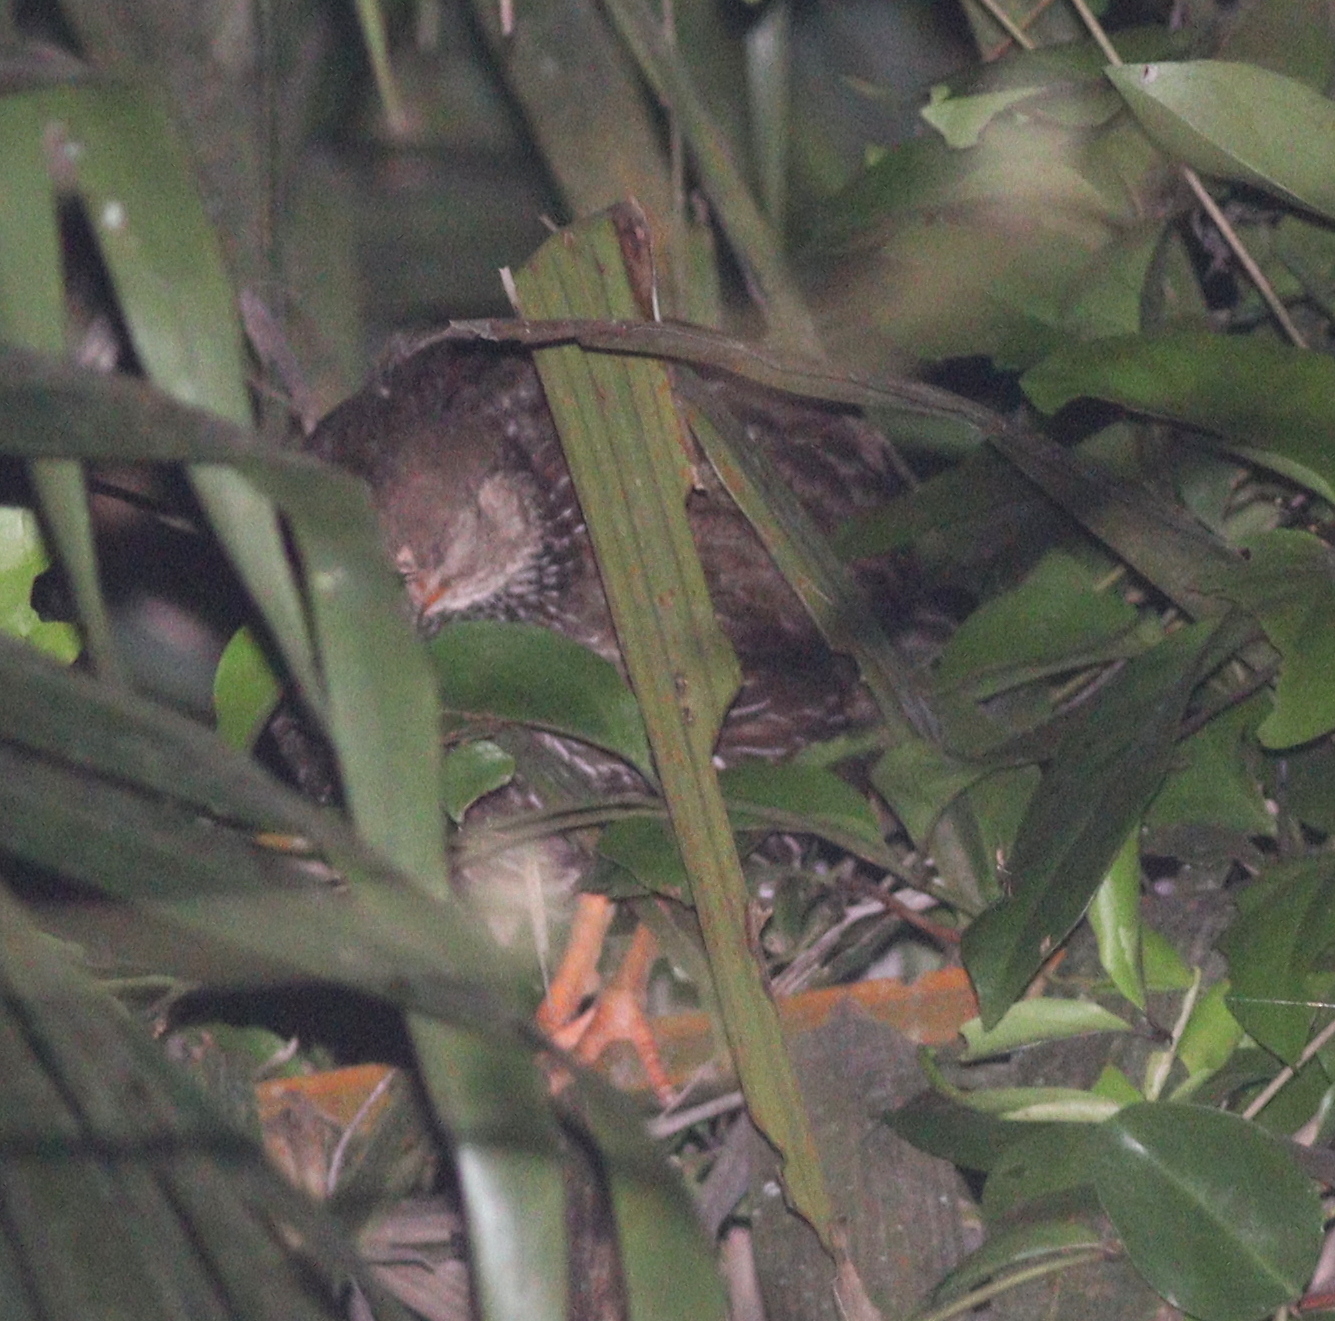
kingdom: Animalia
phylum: Chordata
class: Aves
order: Galliformes
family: Phasianidae
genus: Pternistis
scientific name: Pternistis ahantensis
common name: Ahanta francolin
